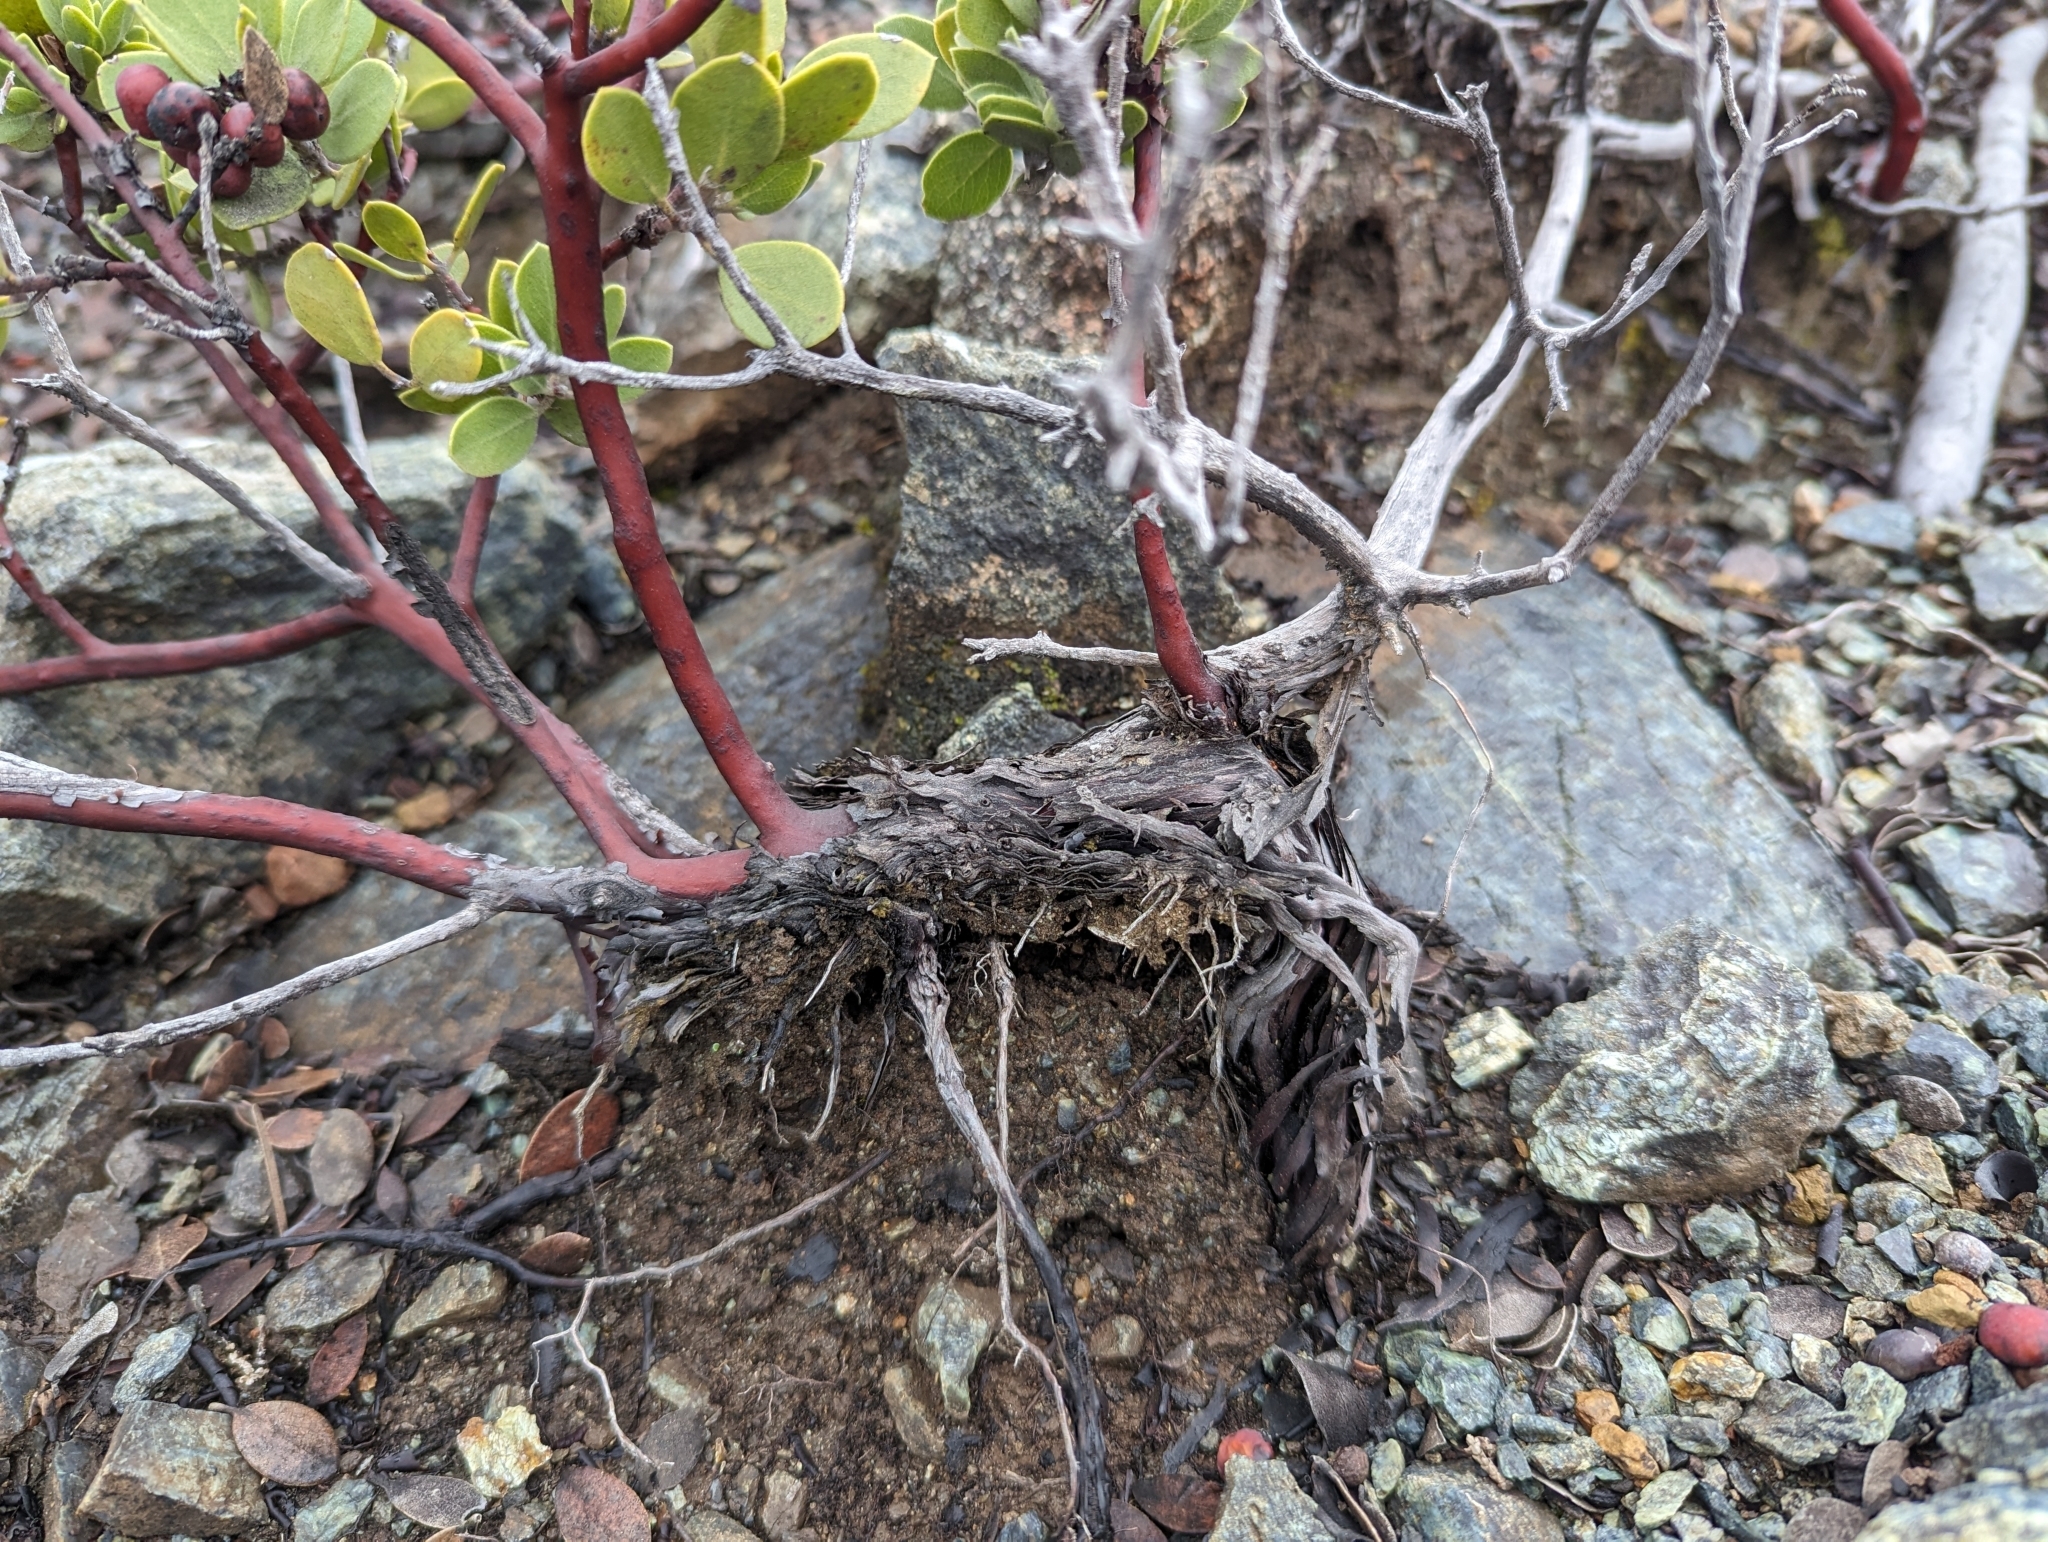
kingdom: Plantae
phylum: Tracheophyta
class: Magnoliopsida
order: Ericales
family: Ericaceae
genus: Arctostaphylos
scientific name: Arctostaphylos montana
